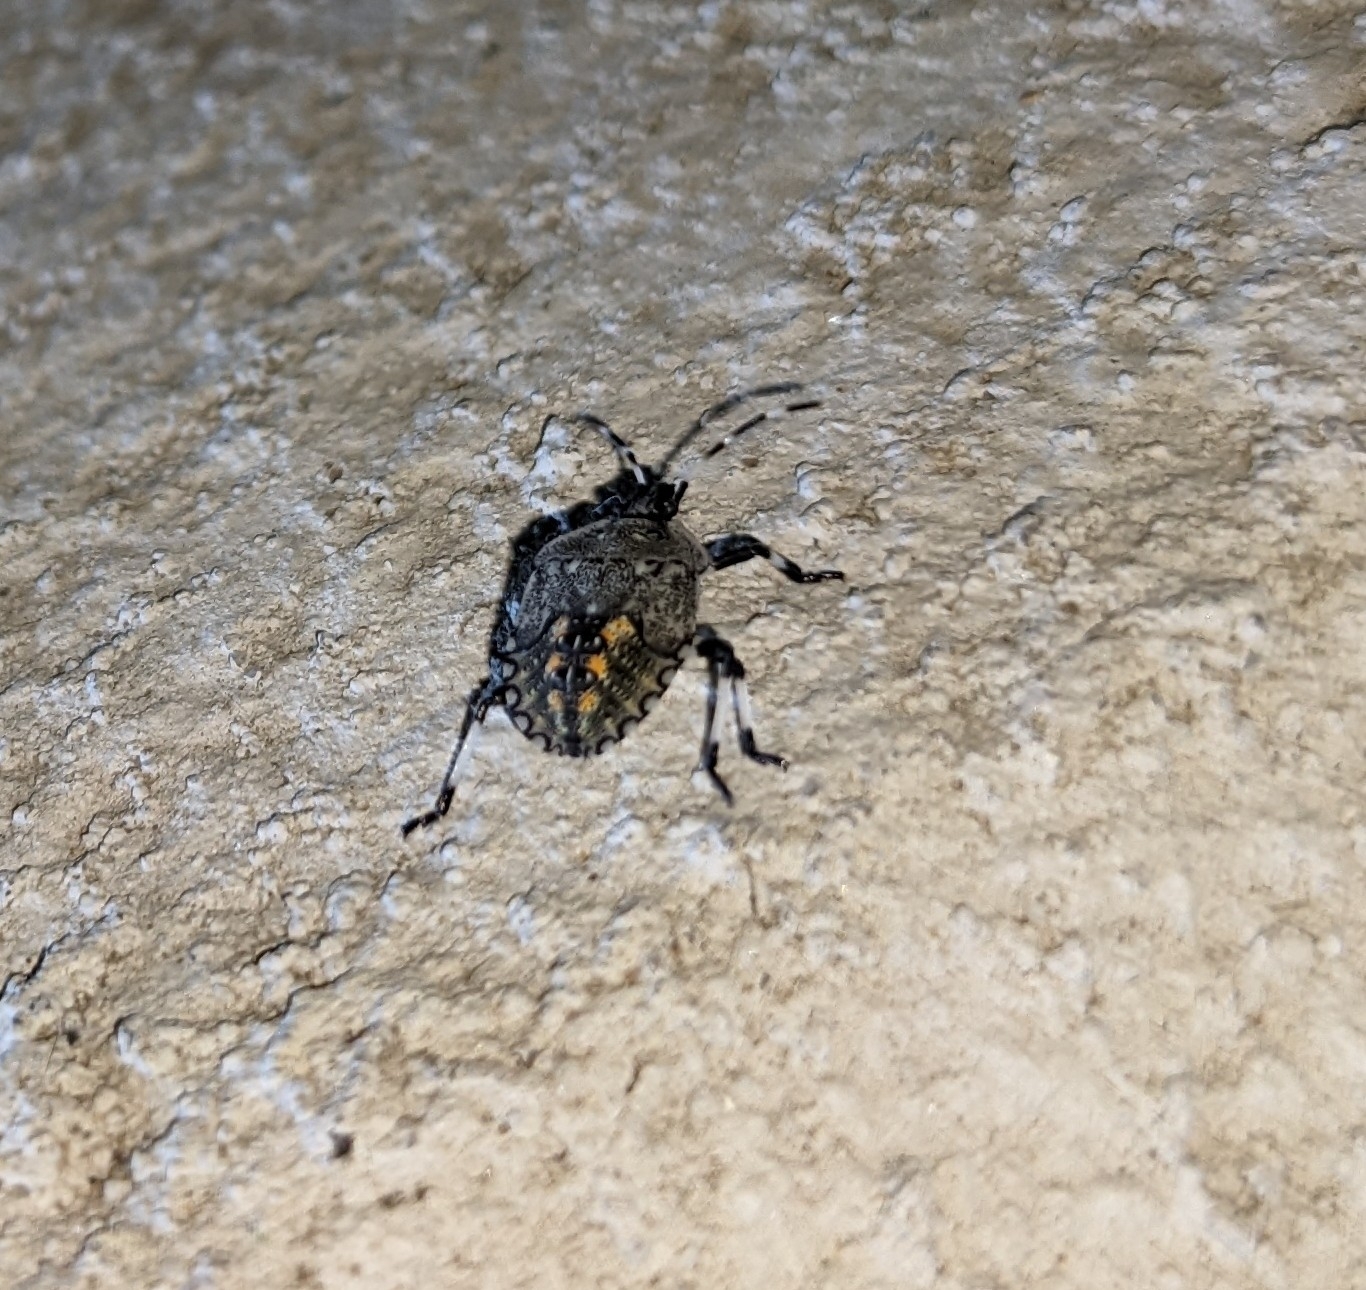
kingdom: Animalia
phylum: Arthropoda
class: Insecta
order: Hemiptera
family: Pentatomidae
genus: Proxys
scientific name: Proxys punctulatus
